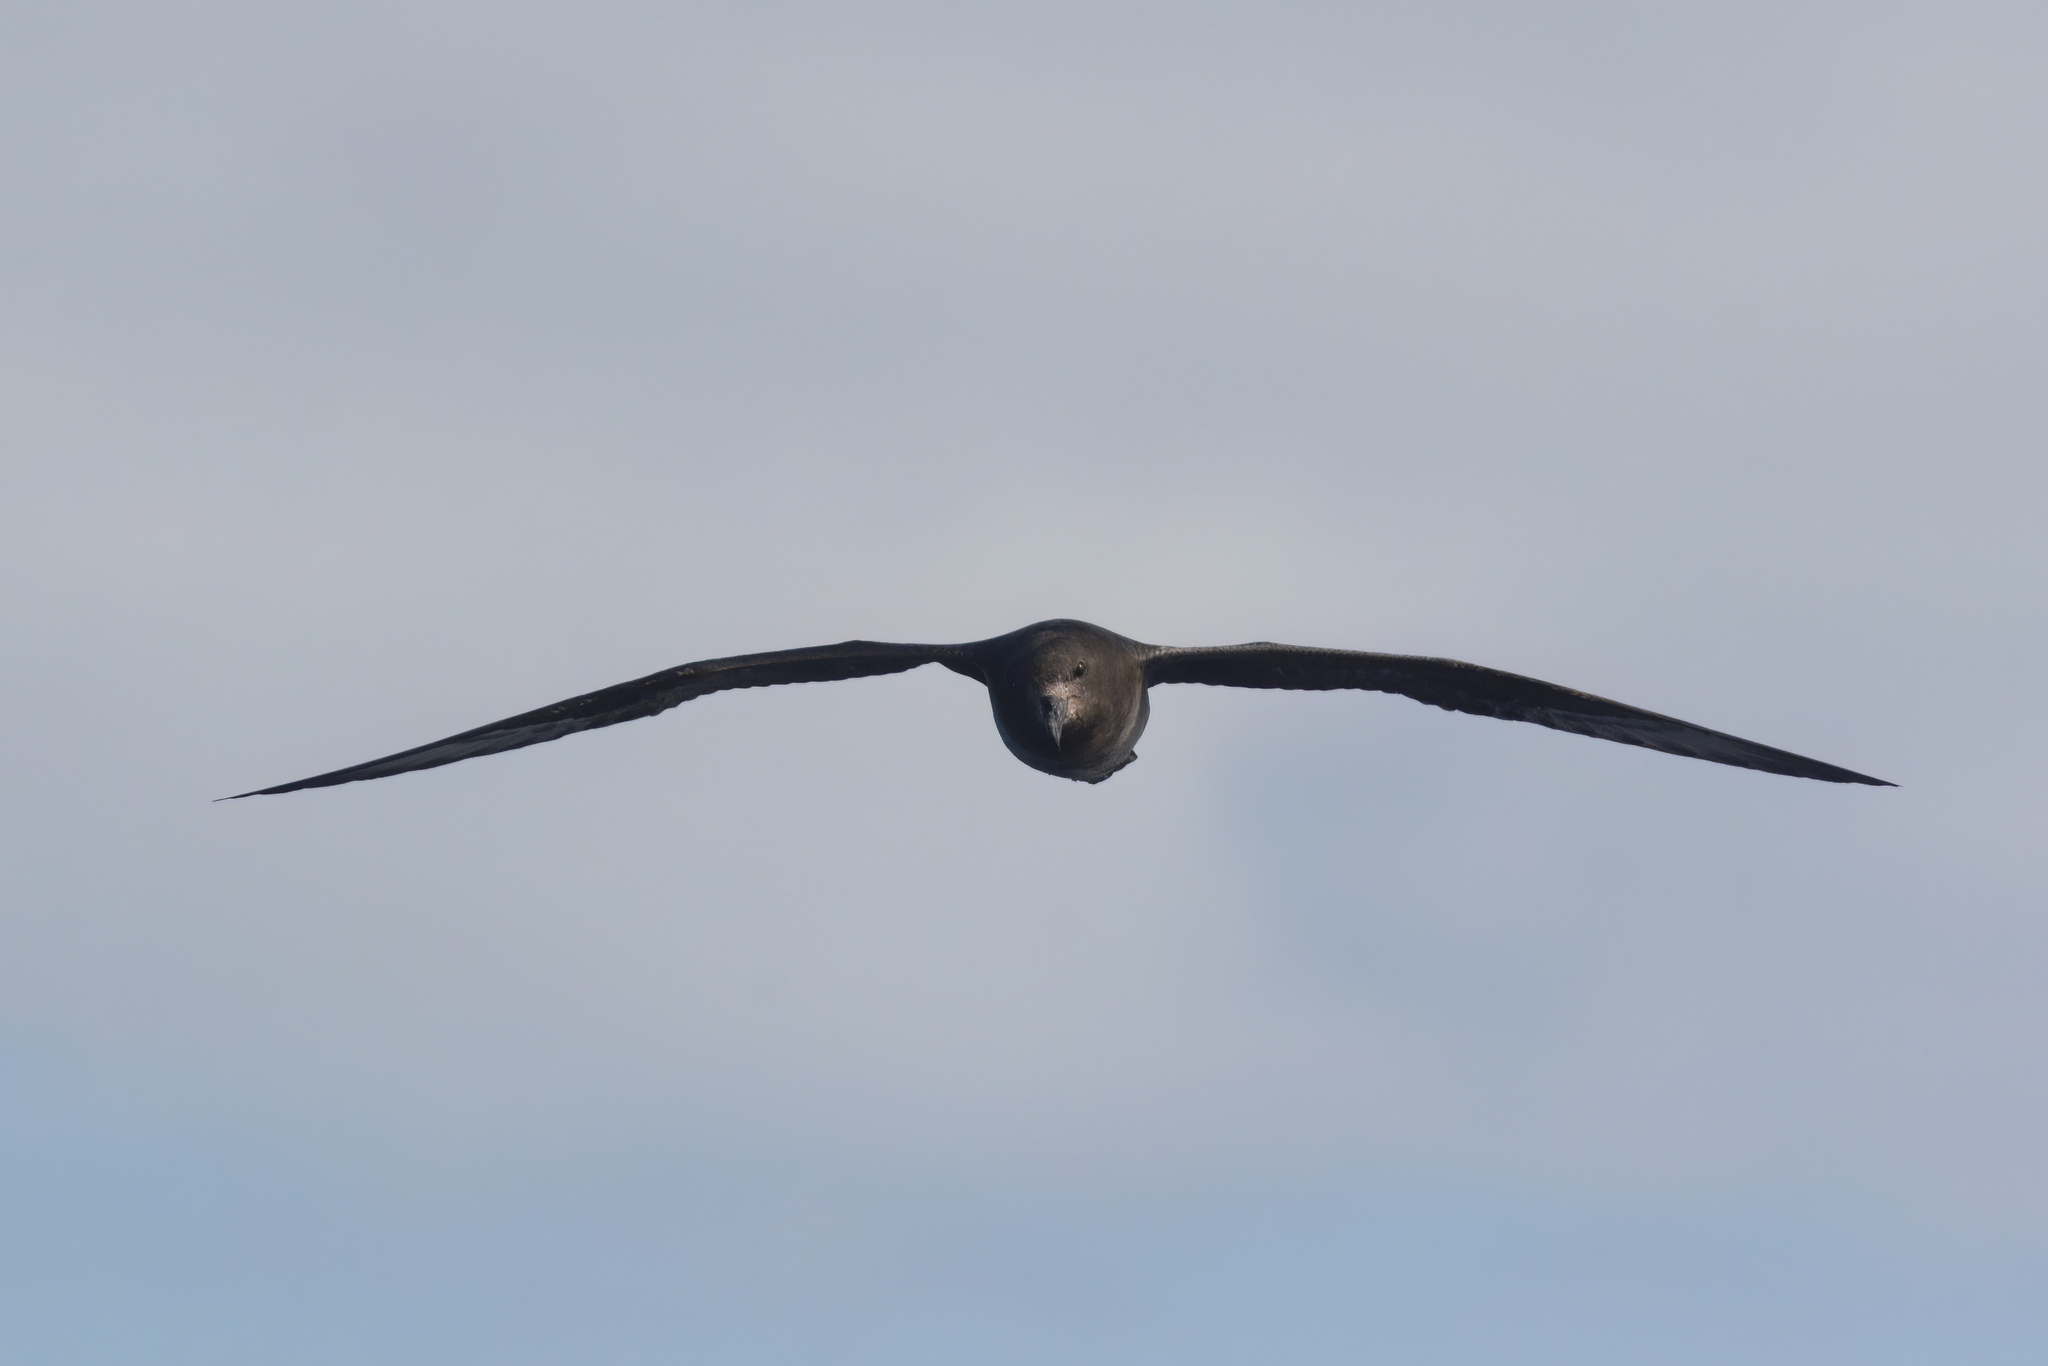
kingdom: Animalia
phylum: Chordata
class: Aves
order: Procellariiformes
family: Procellariidae
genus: Pterodroma
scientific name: Pterodroma solandri
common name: Providence petrel
